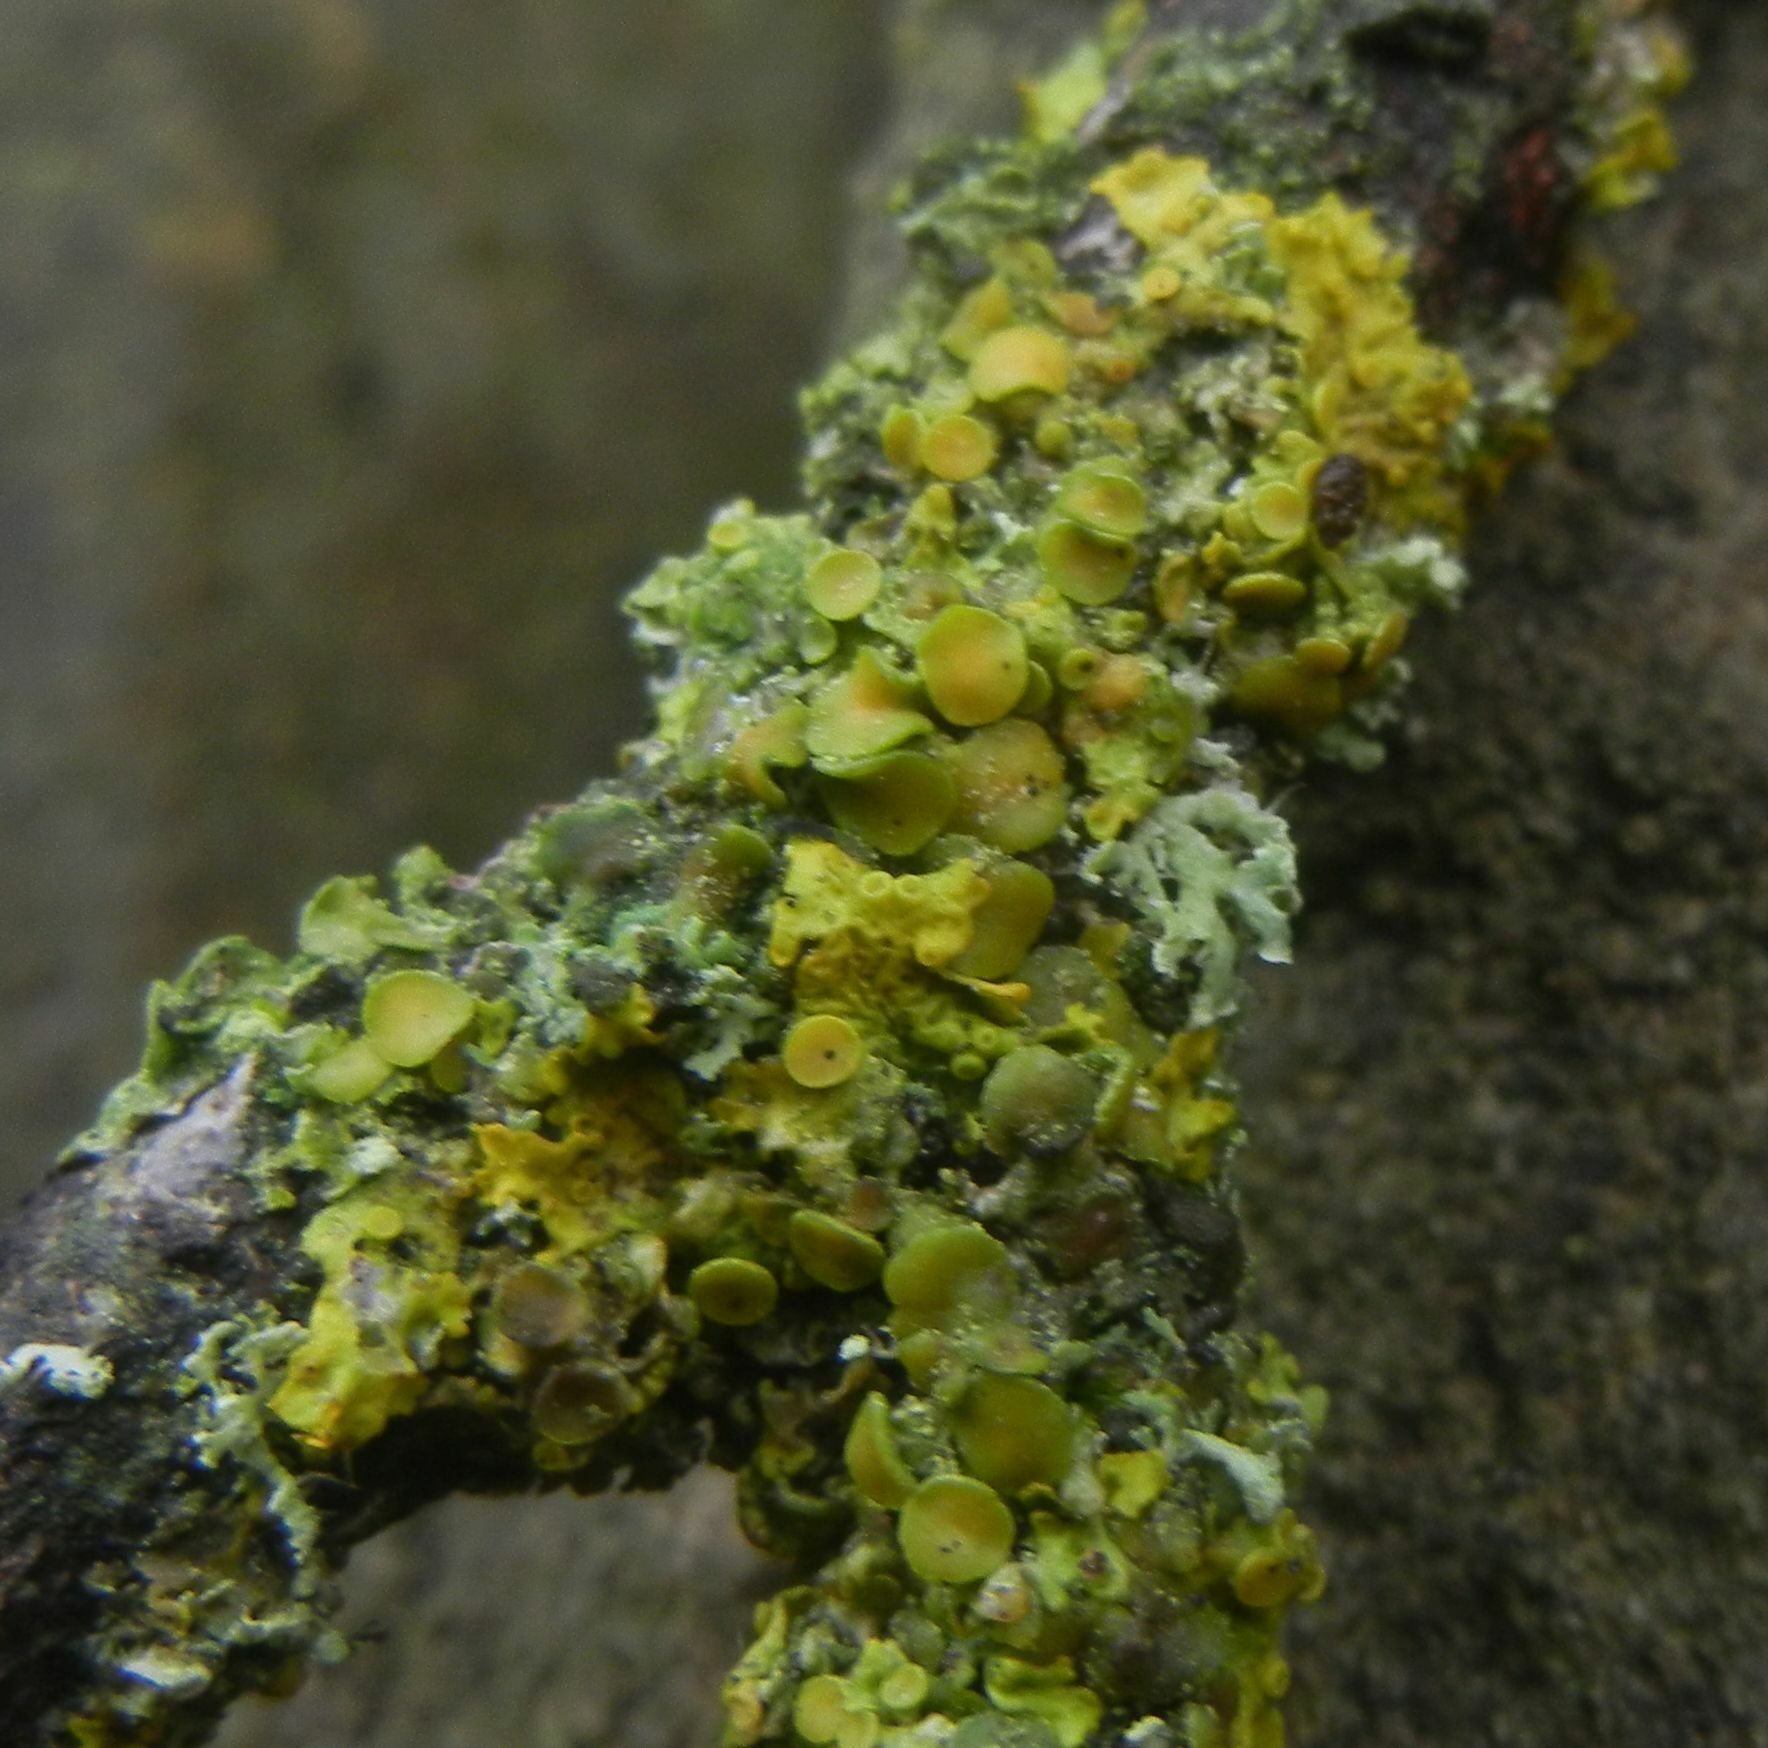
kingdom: Fungi
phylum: Ascomycota
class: Lecanoromycetes
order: Teloschistales
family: Teloschistaceae
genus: Xanthoria
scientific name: Xanthoria parietina
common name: Common orange lichen
